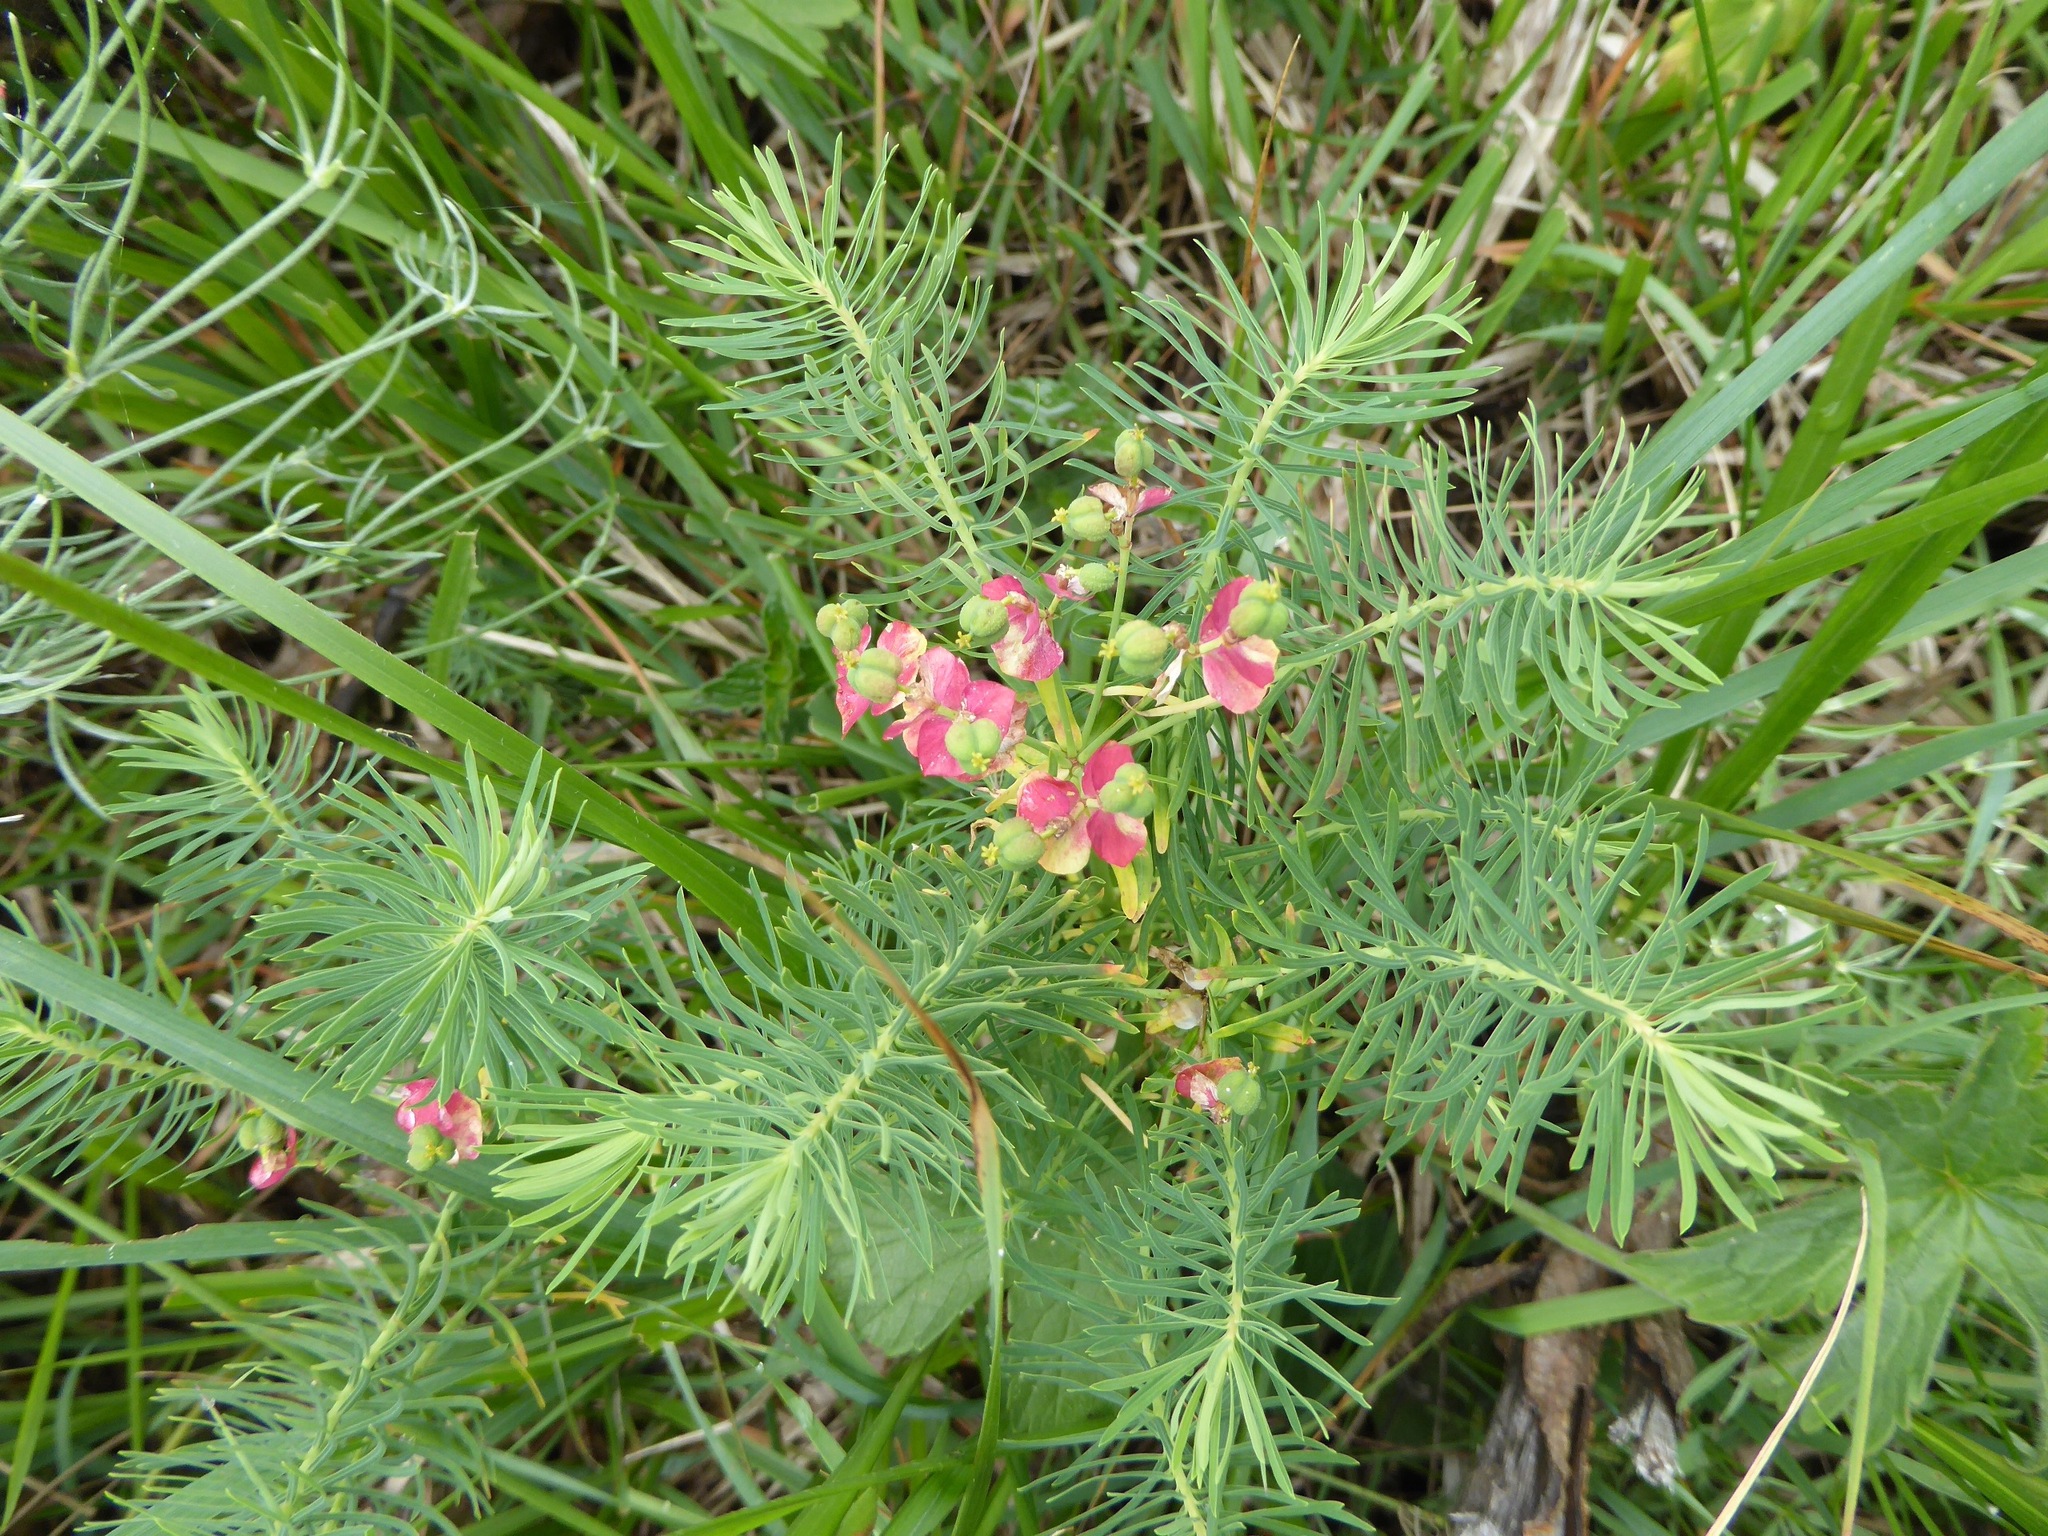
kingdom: Plantae
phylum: Tracheophyta
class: Magnoliopsida
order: Malpighiales
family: Euphorbiaceae
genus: Euphorbia
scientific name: Euphorbia cyparissias
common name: Cypress spurge
